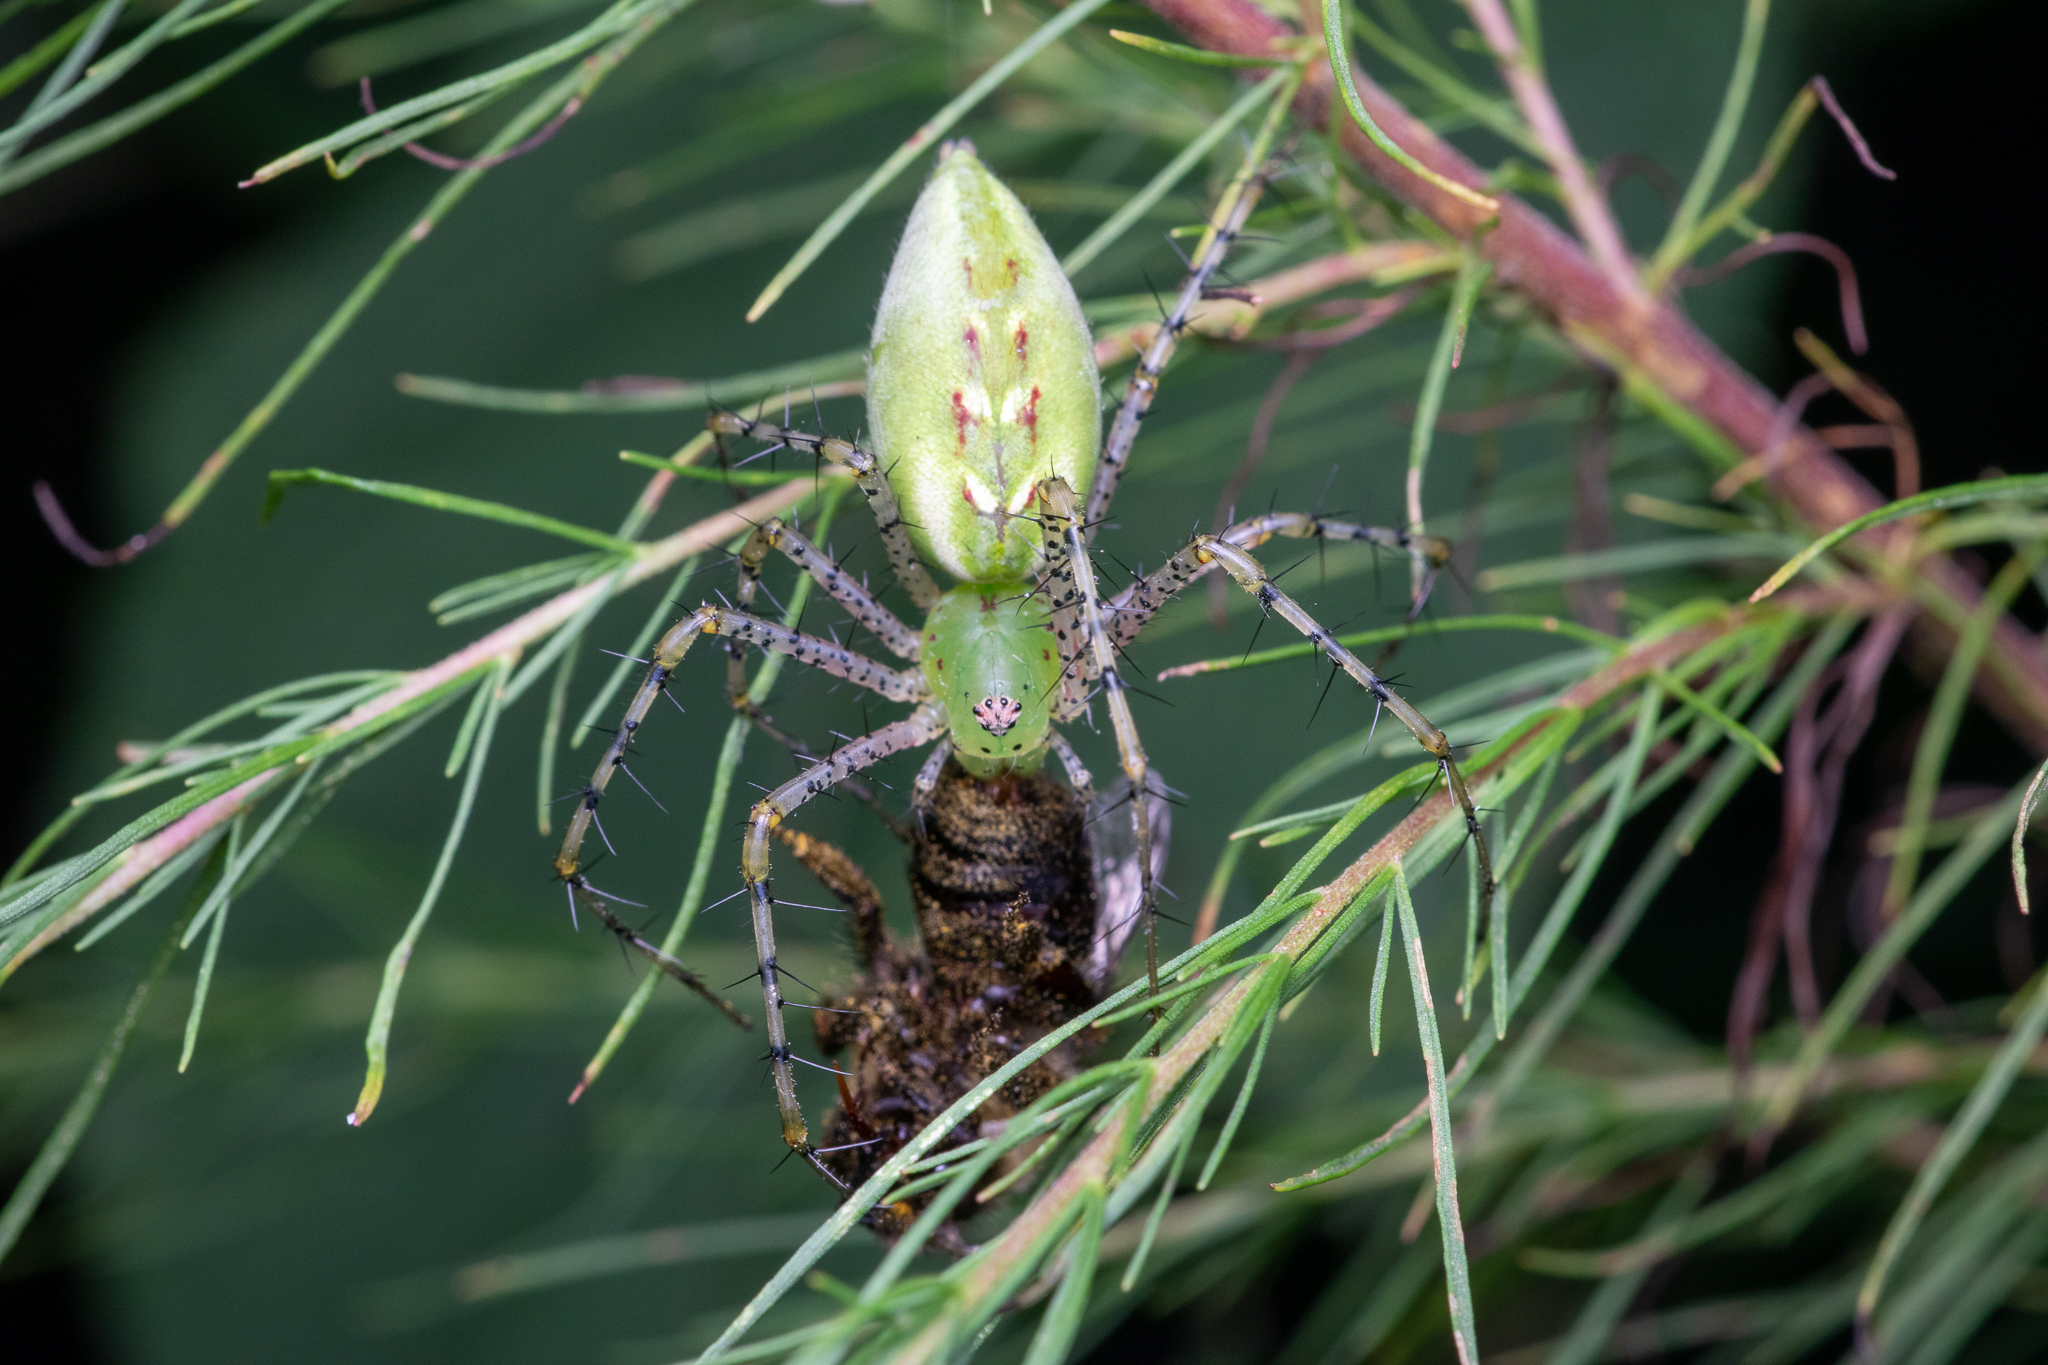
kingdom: Animalia
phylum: Arthropoda
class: Arachnida
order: Araneae
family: Oxyopidae
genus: Peucetia
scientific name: Peucetia viridans
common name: Lynx spiders
